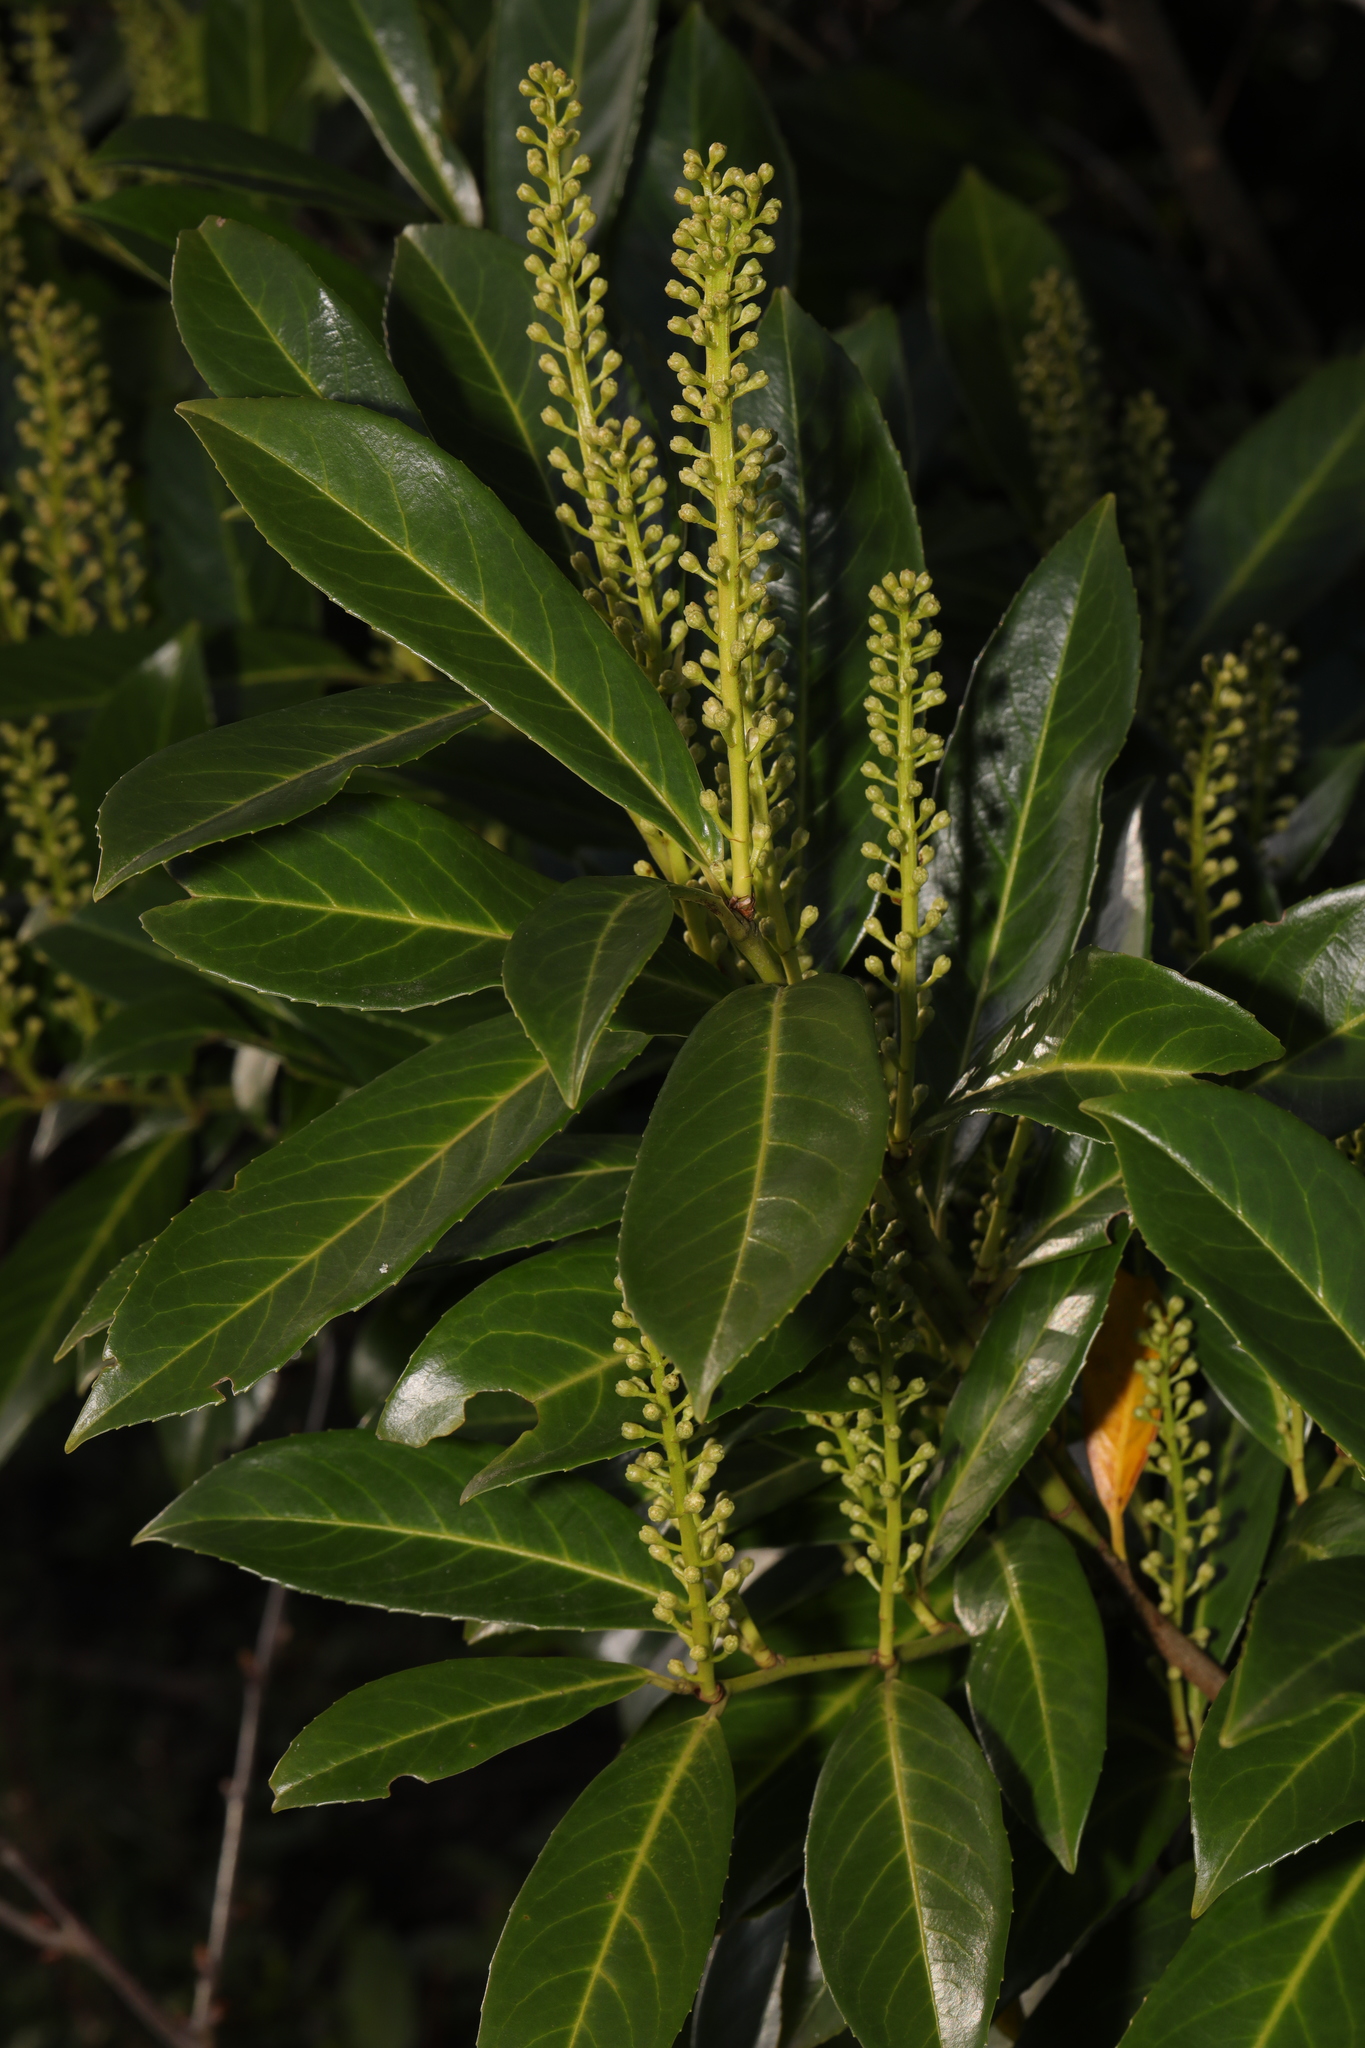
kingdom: Plantae
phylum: Tracheophyta
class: Magnoliopsida
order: Rosales
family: Rosaceae
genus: Prunus
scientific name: Prunus laurocerasus
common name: Cherry laurel
